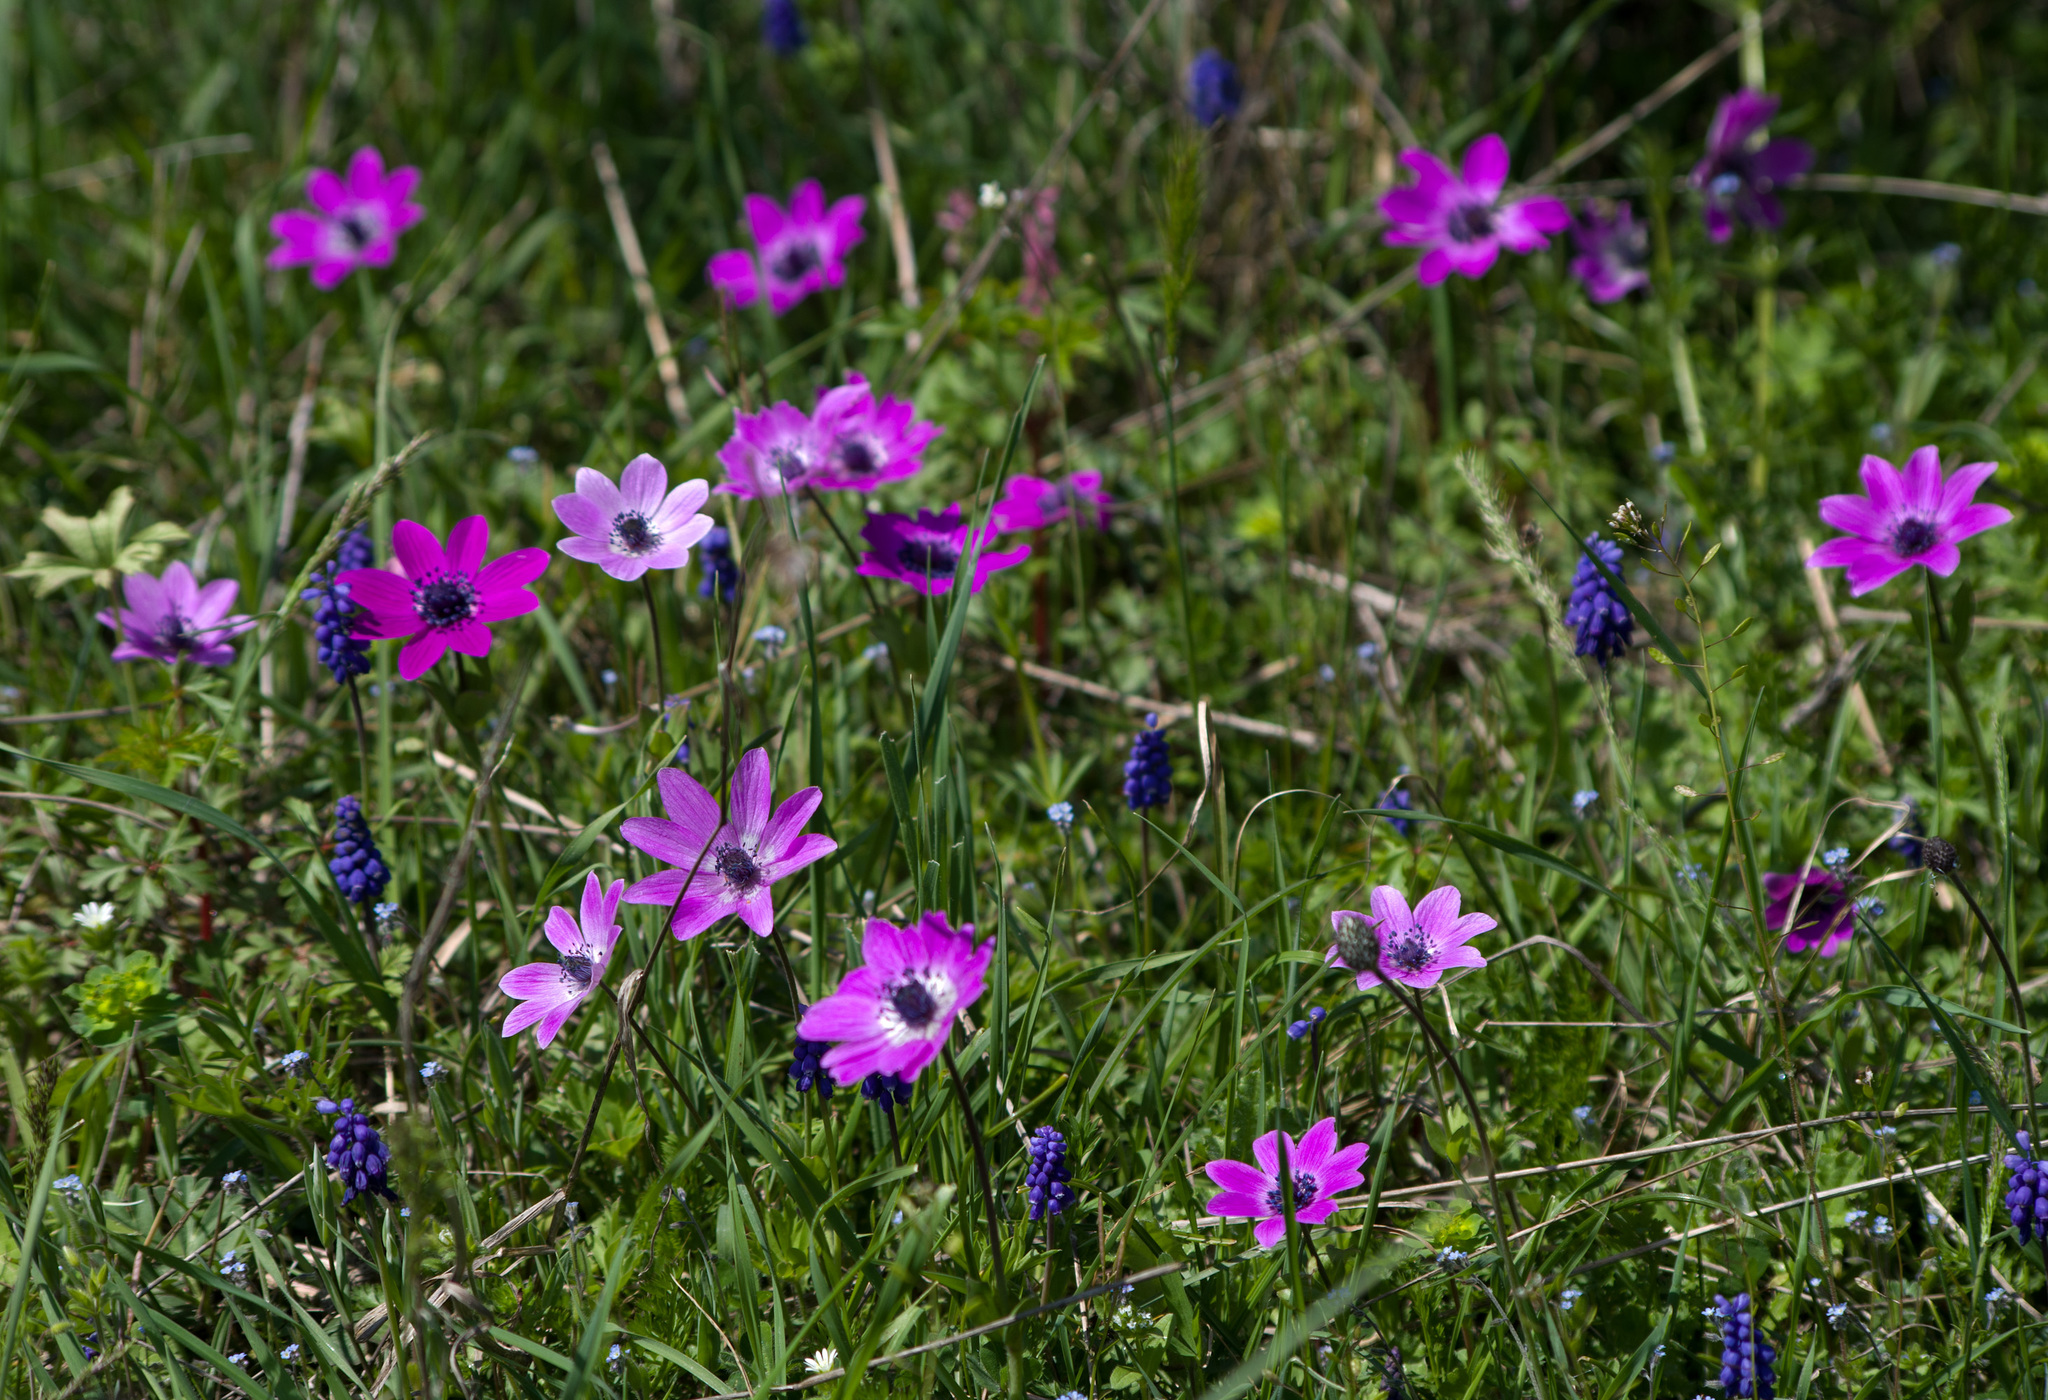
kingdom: Plantae
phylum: Tracheophyta
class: Magnoliopsida
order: Ranunculales
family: Ranunculaceae
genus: Anemone
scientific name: Anemone pavonina
